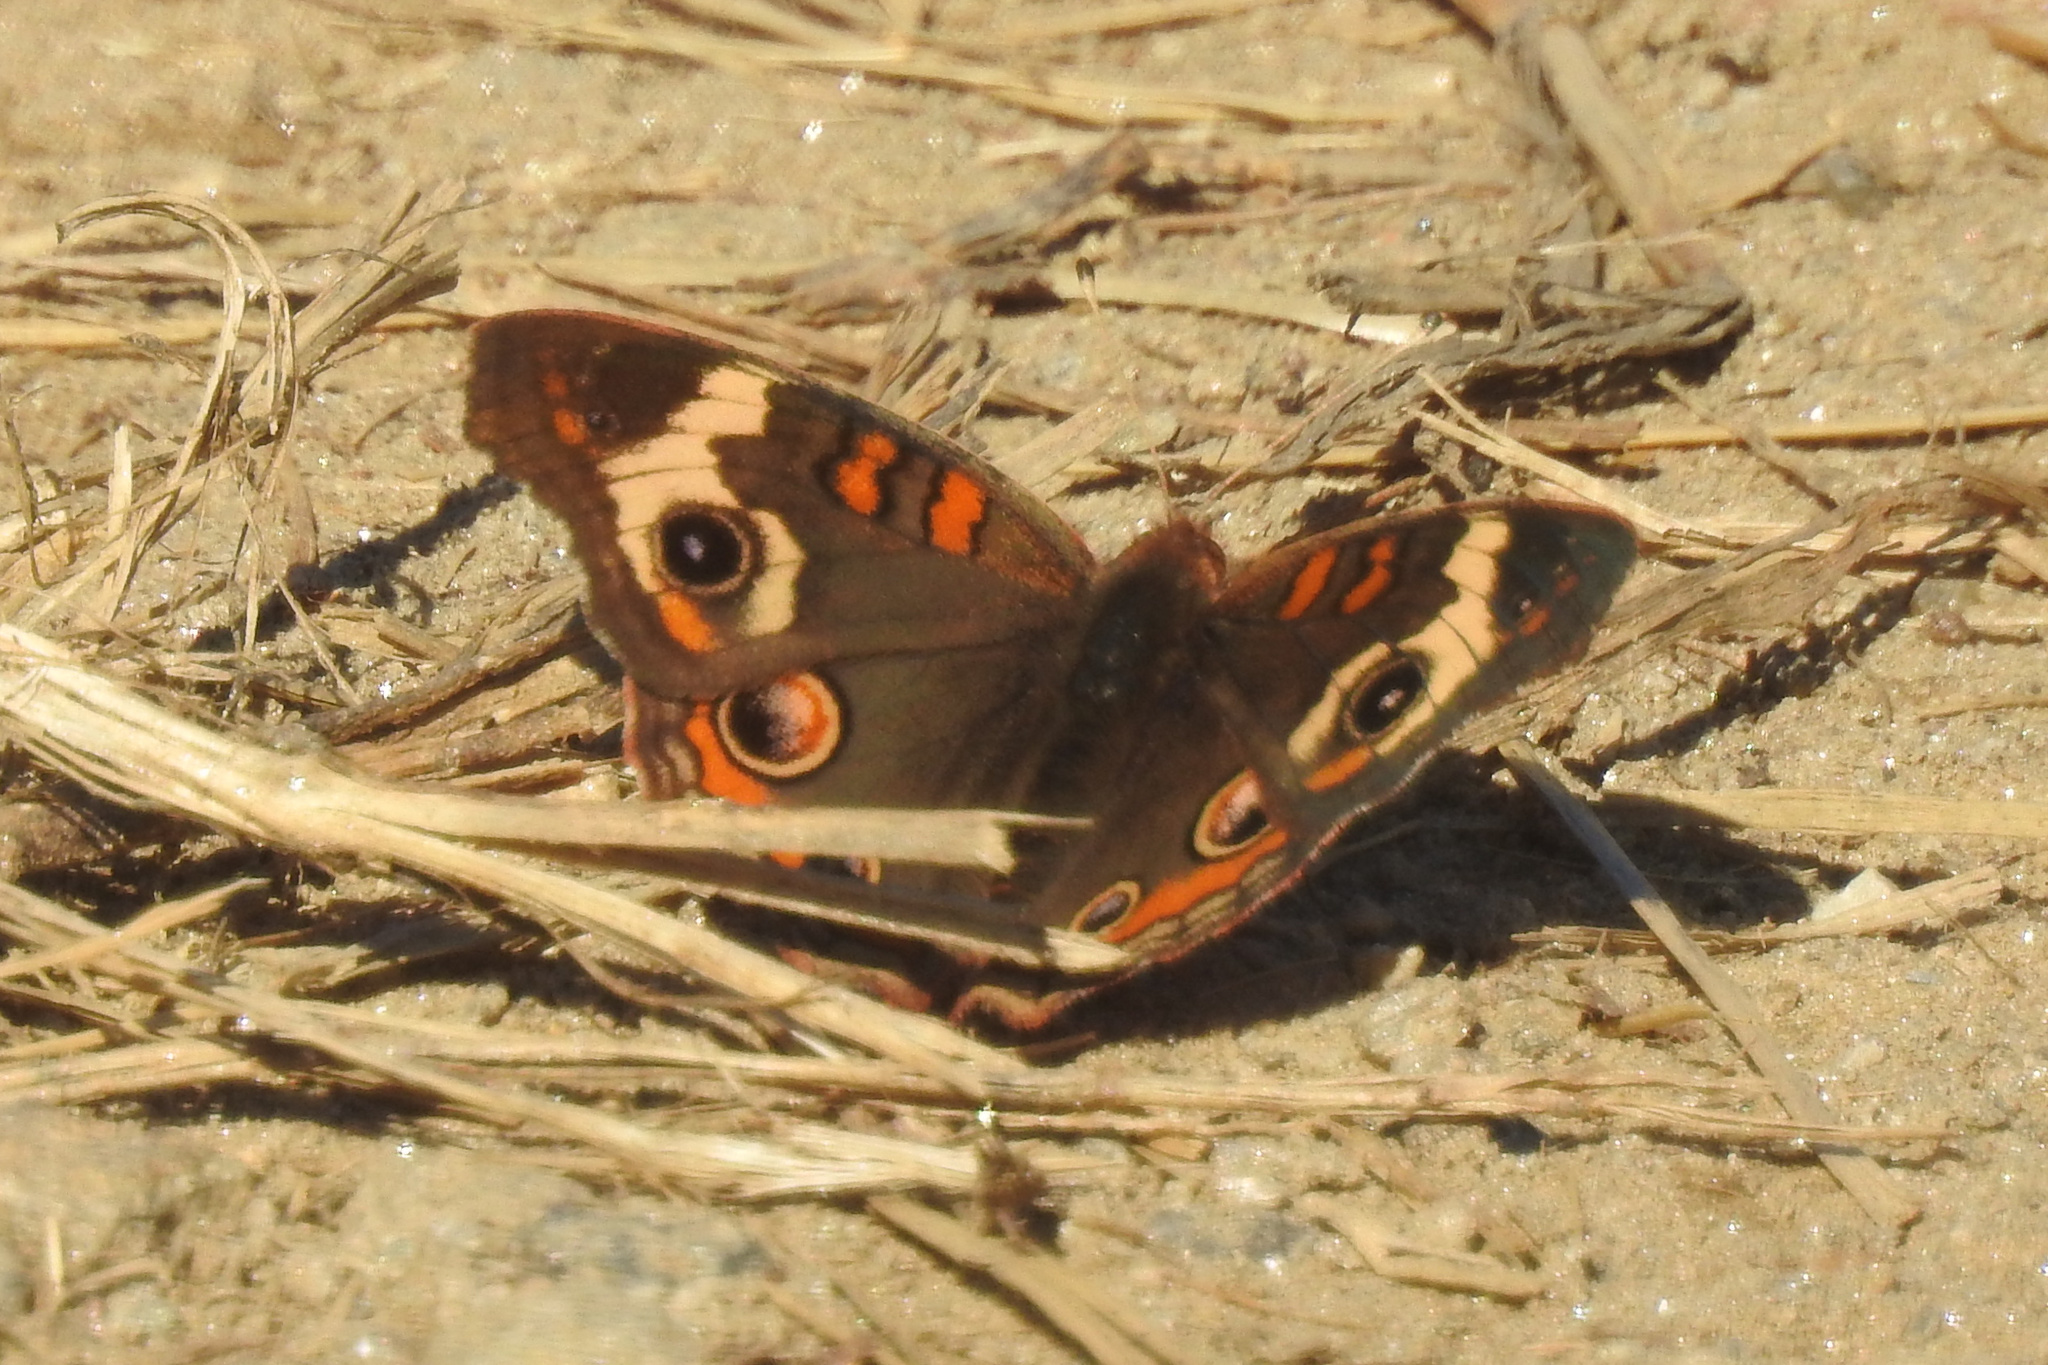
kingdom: Animalia
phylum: Arthropoda
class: Insecta
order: Lepidoptera
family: Nymphalidae
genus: Junonia
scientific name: Junonia coenia
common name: Common buckeye
